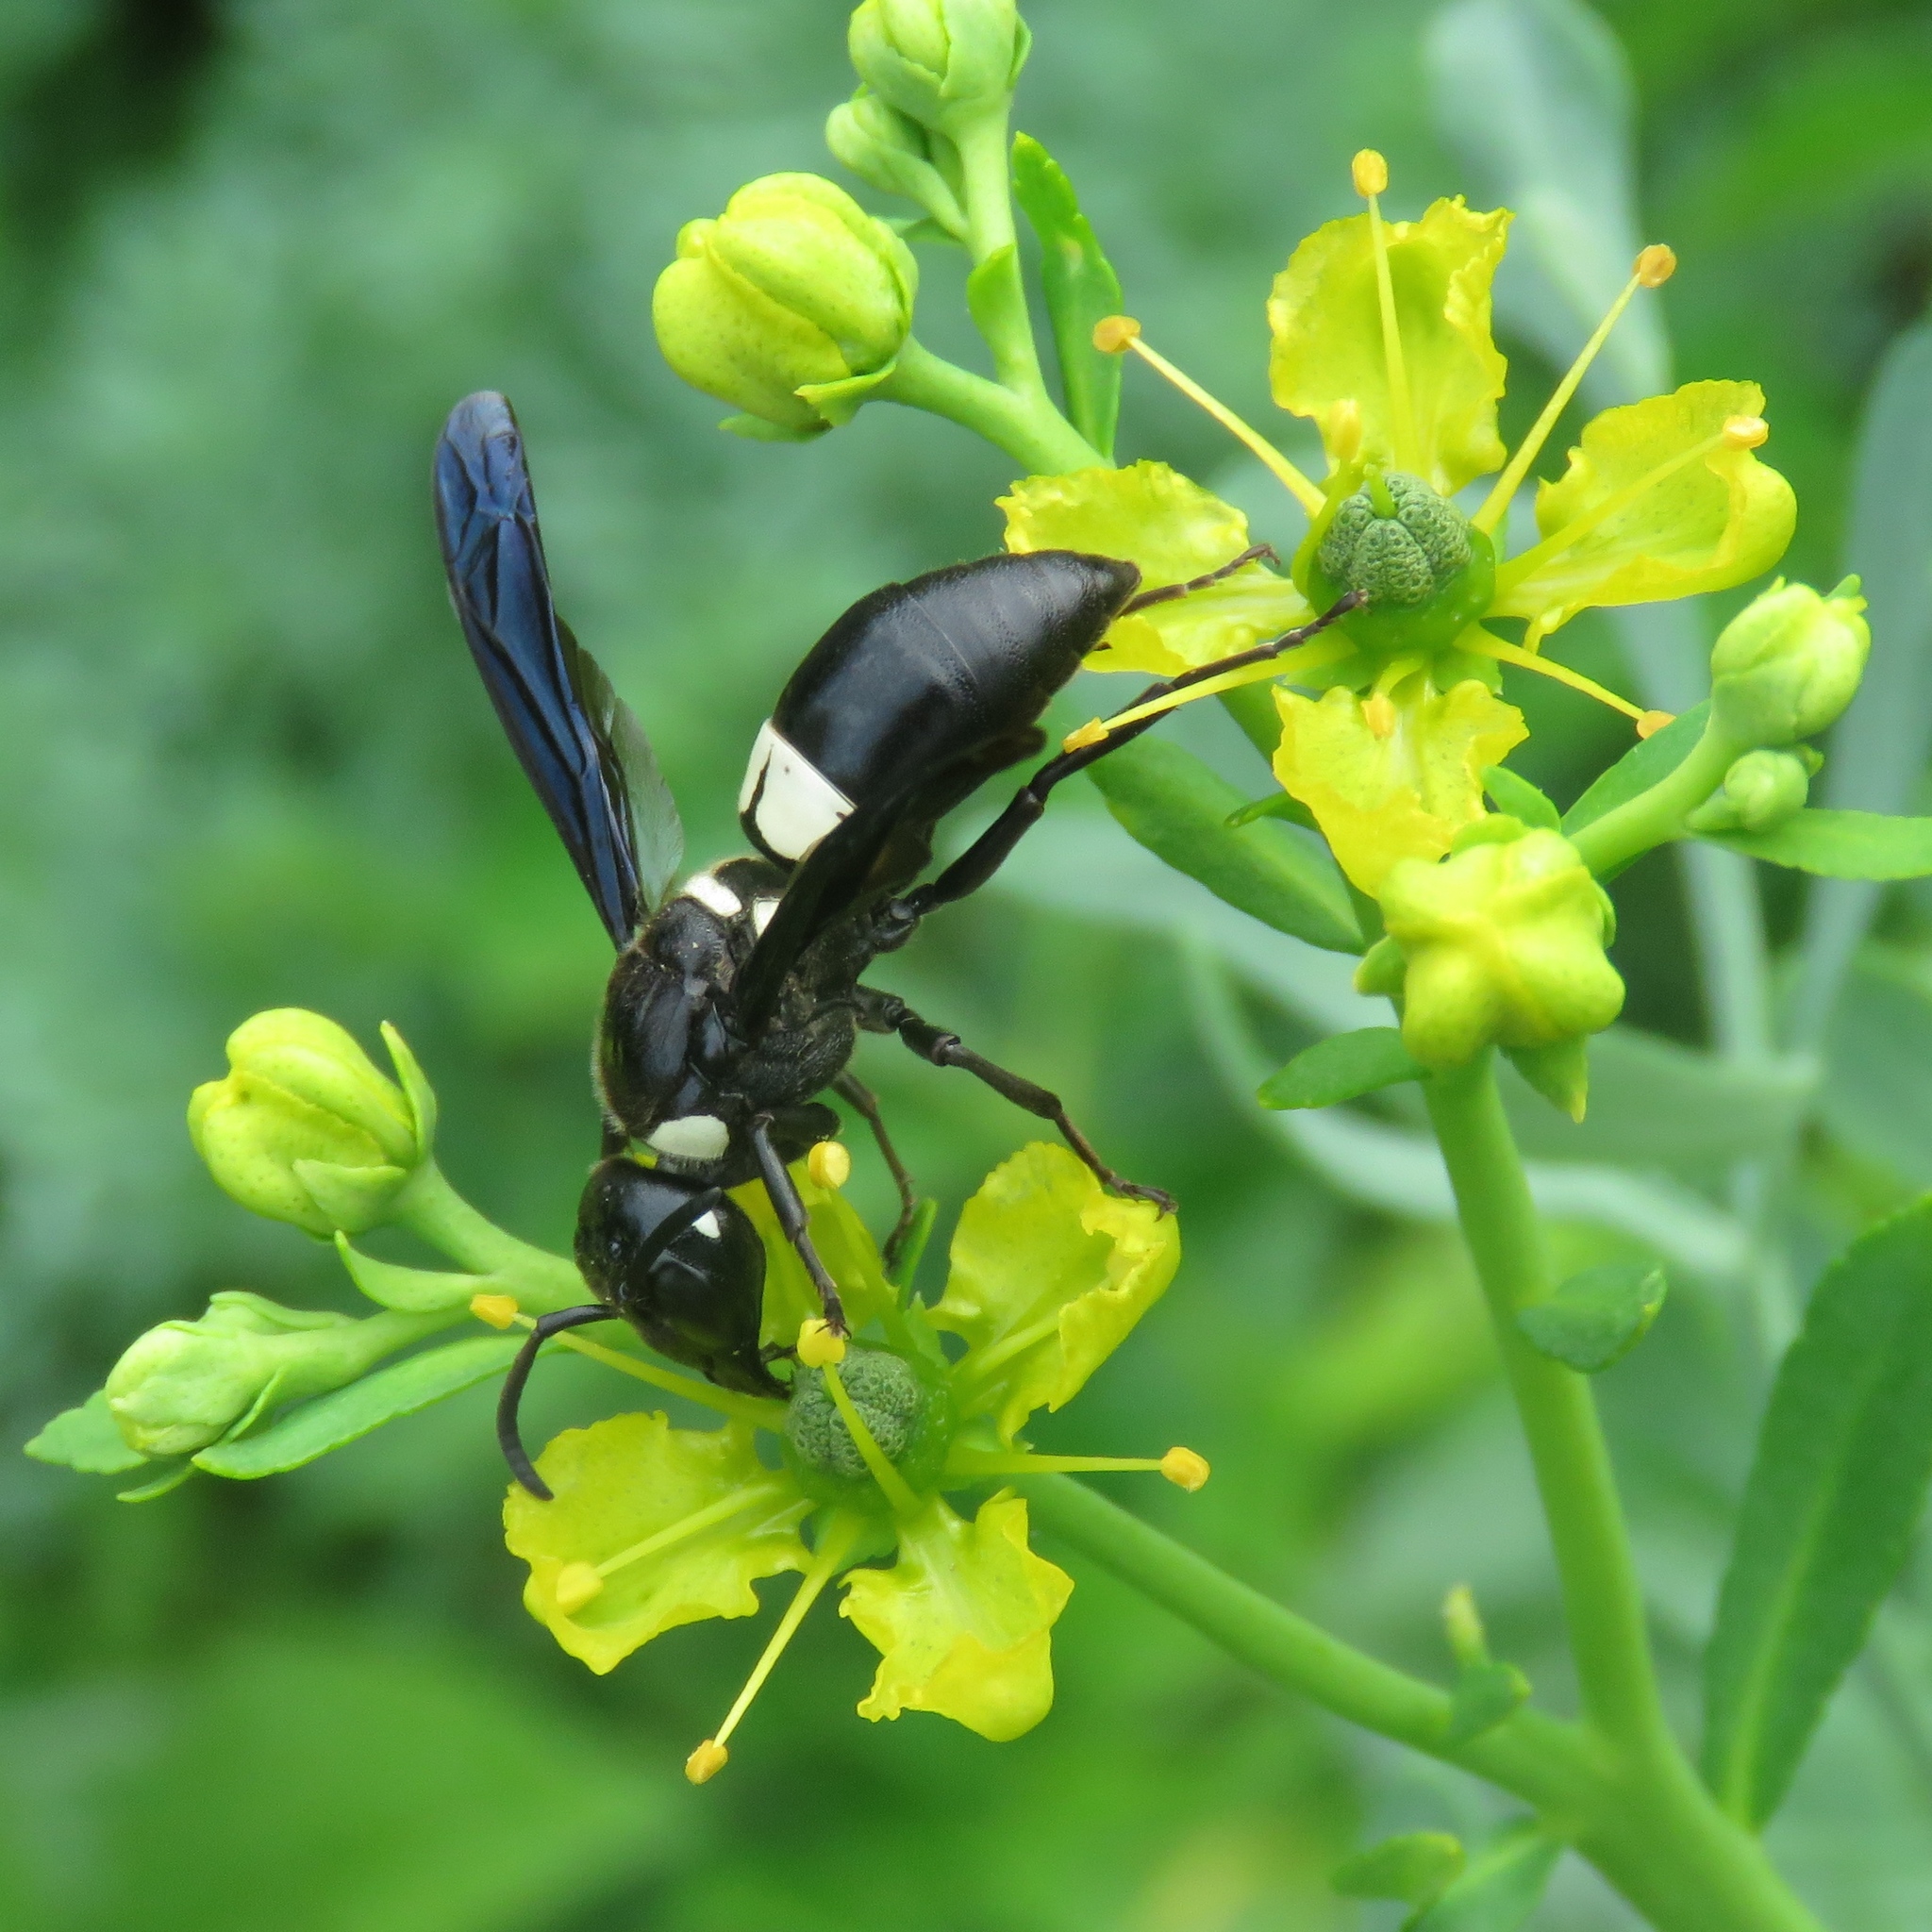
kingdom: Animalia
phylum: Arthropoda
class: Insecta
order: Hymenoptera
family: Eumenidae
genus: Euodynerus
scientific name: Euodynerus bidens
